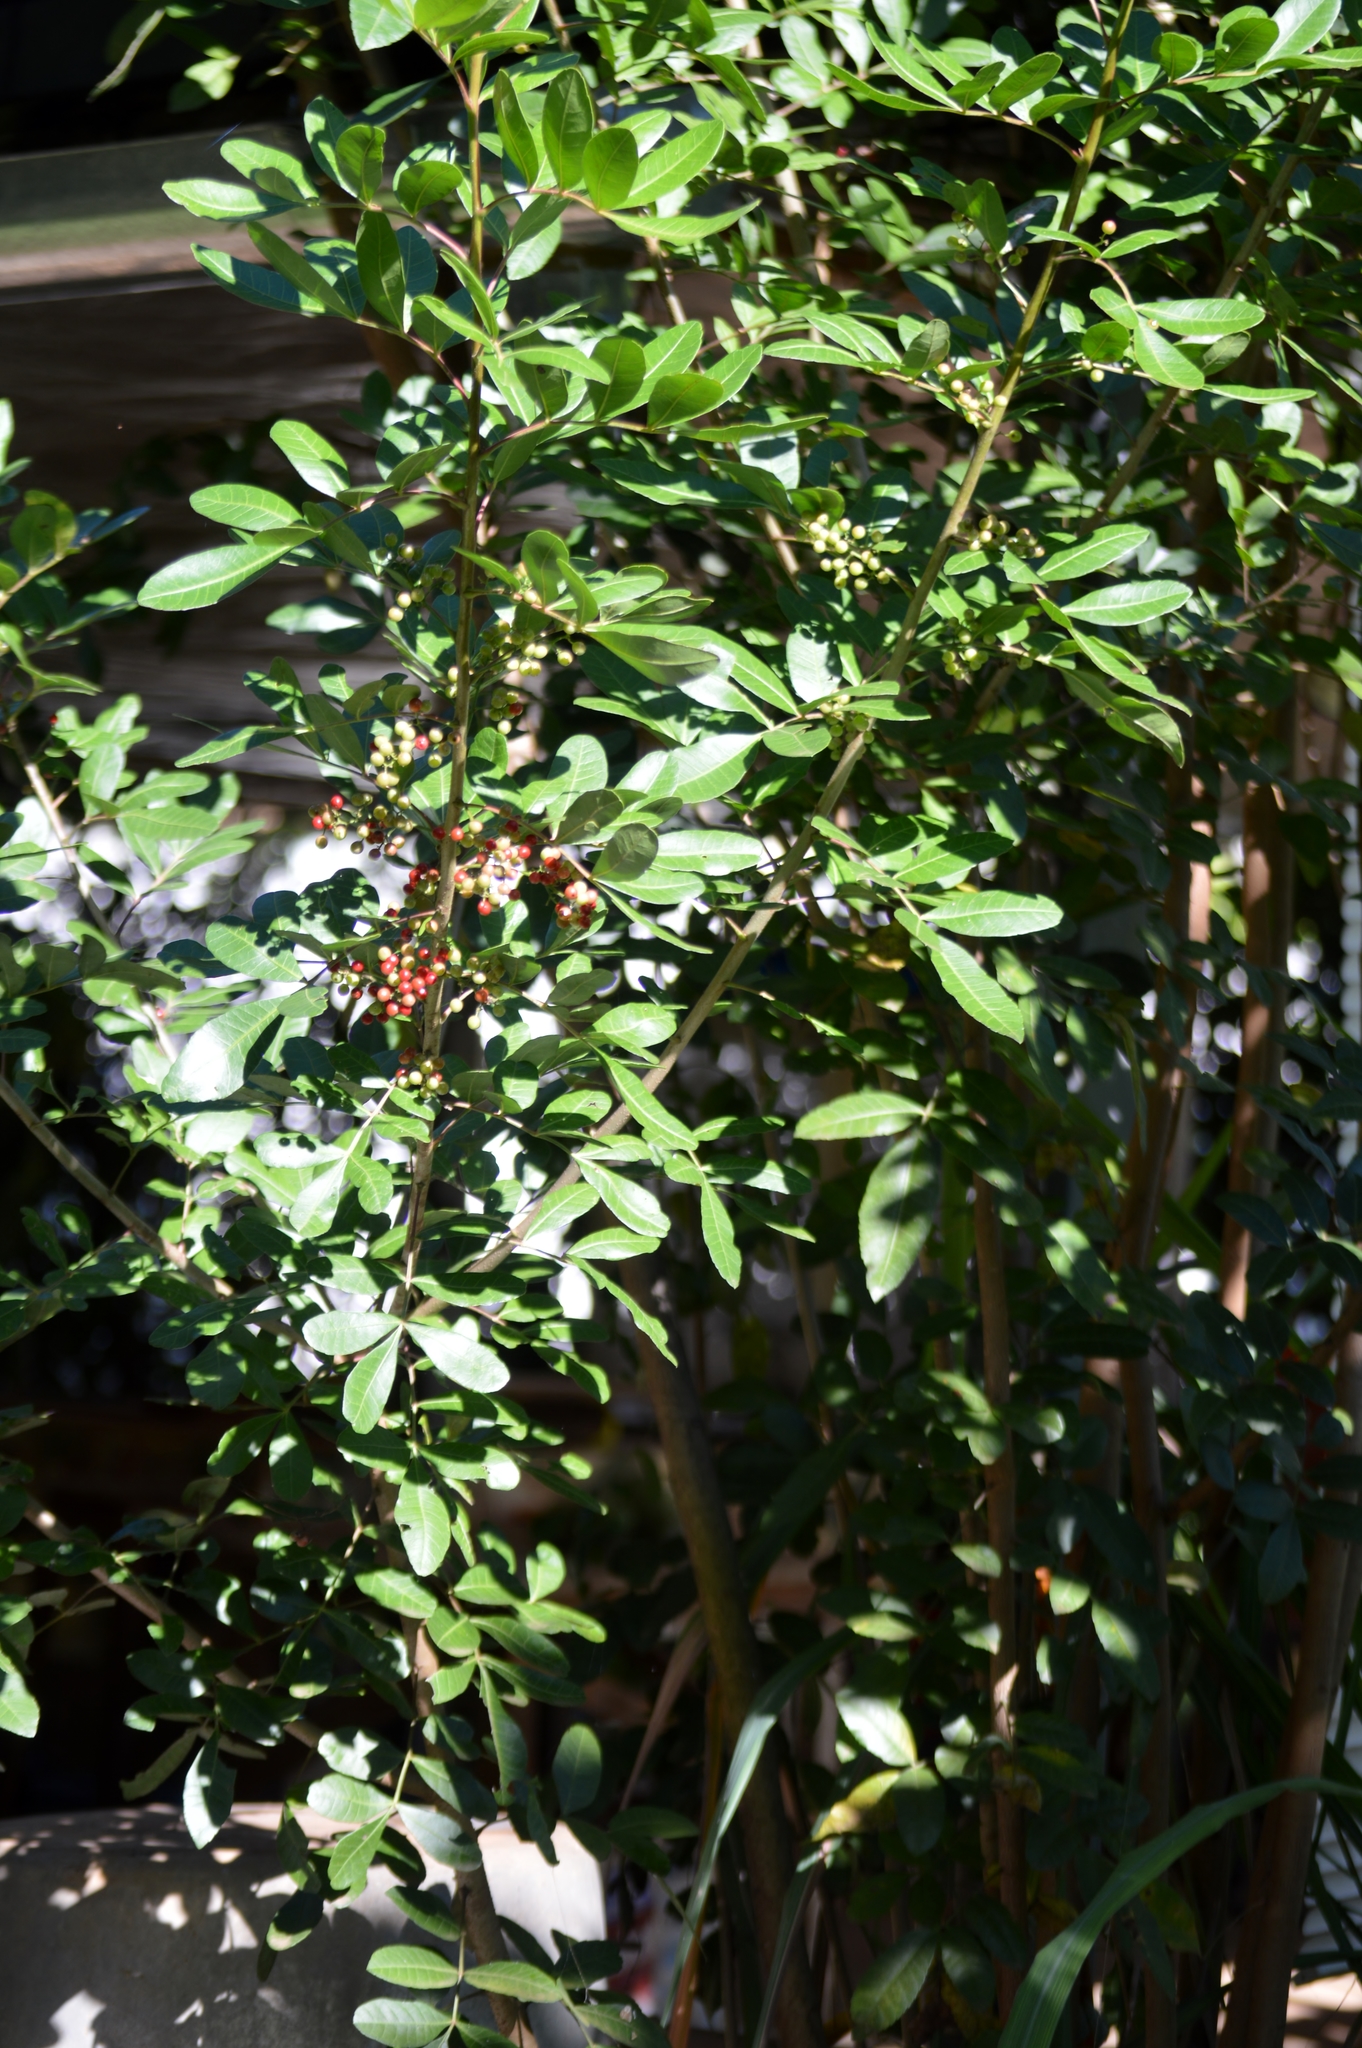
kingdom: Plantae
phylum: Tracheophyta
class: Magnoliopsida
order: Sapindales
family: Anacardiaceae
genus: Schinus
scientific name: Schinus terebinthifolia
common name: Brazilian peppertree
